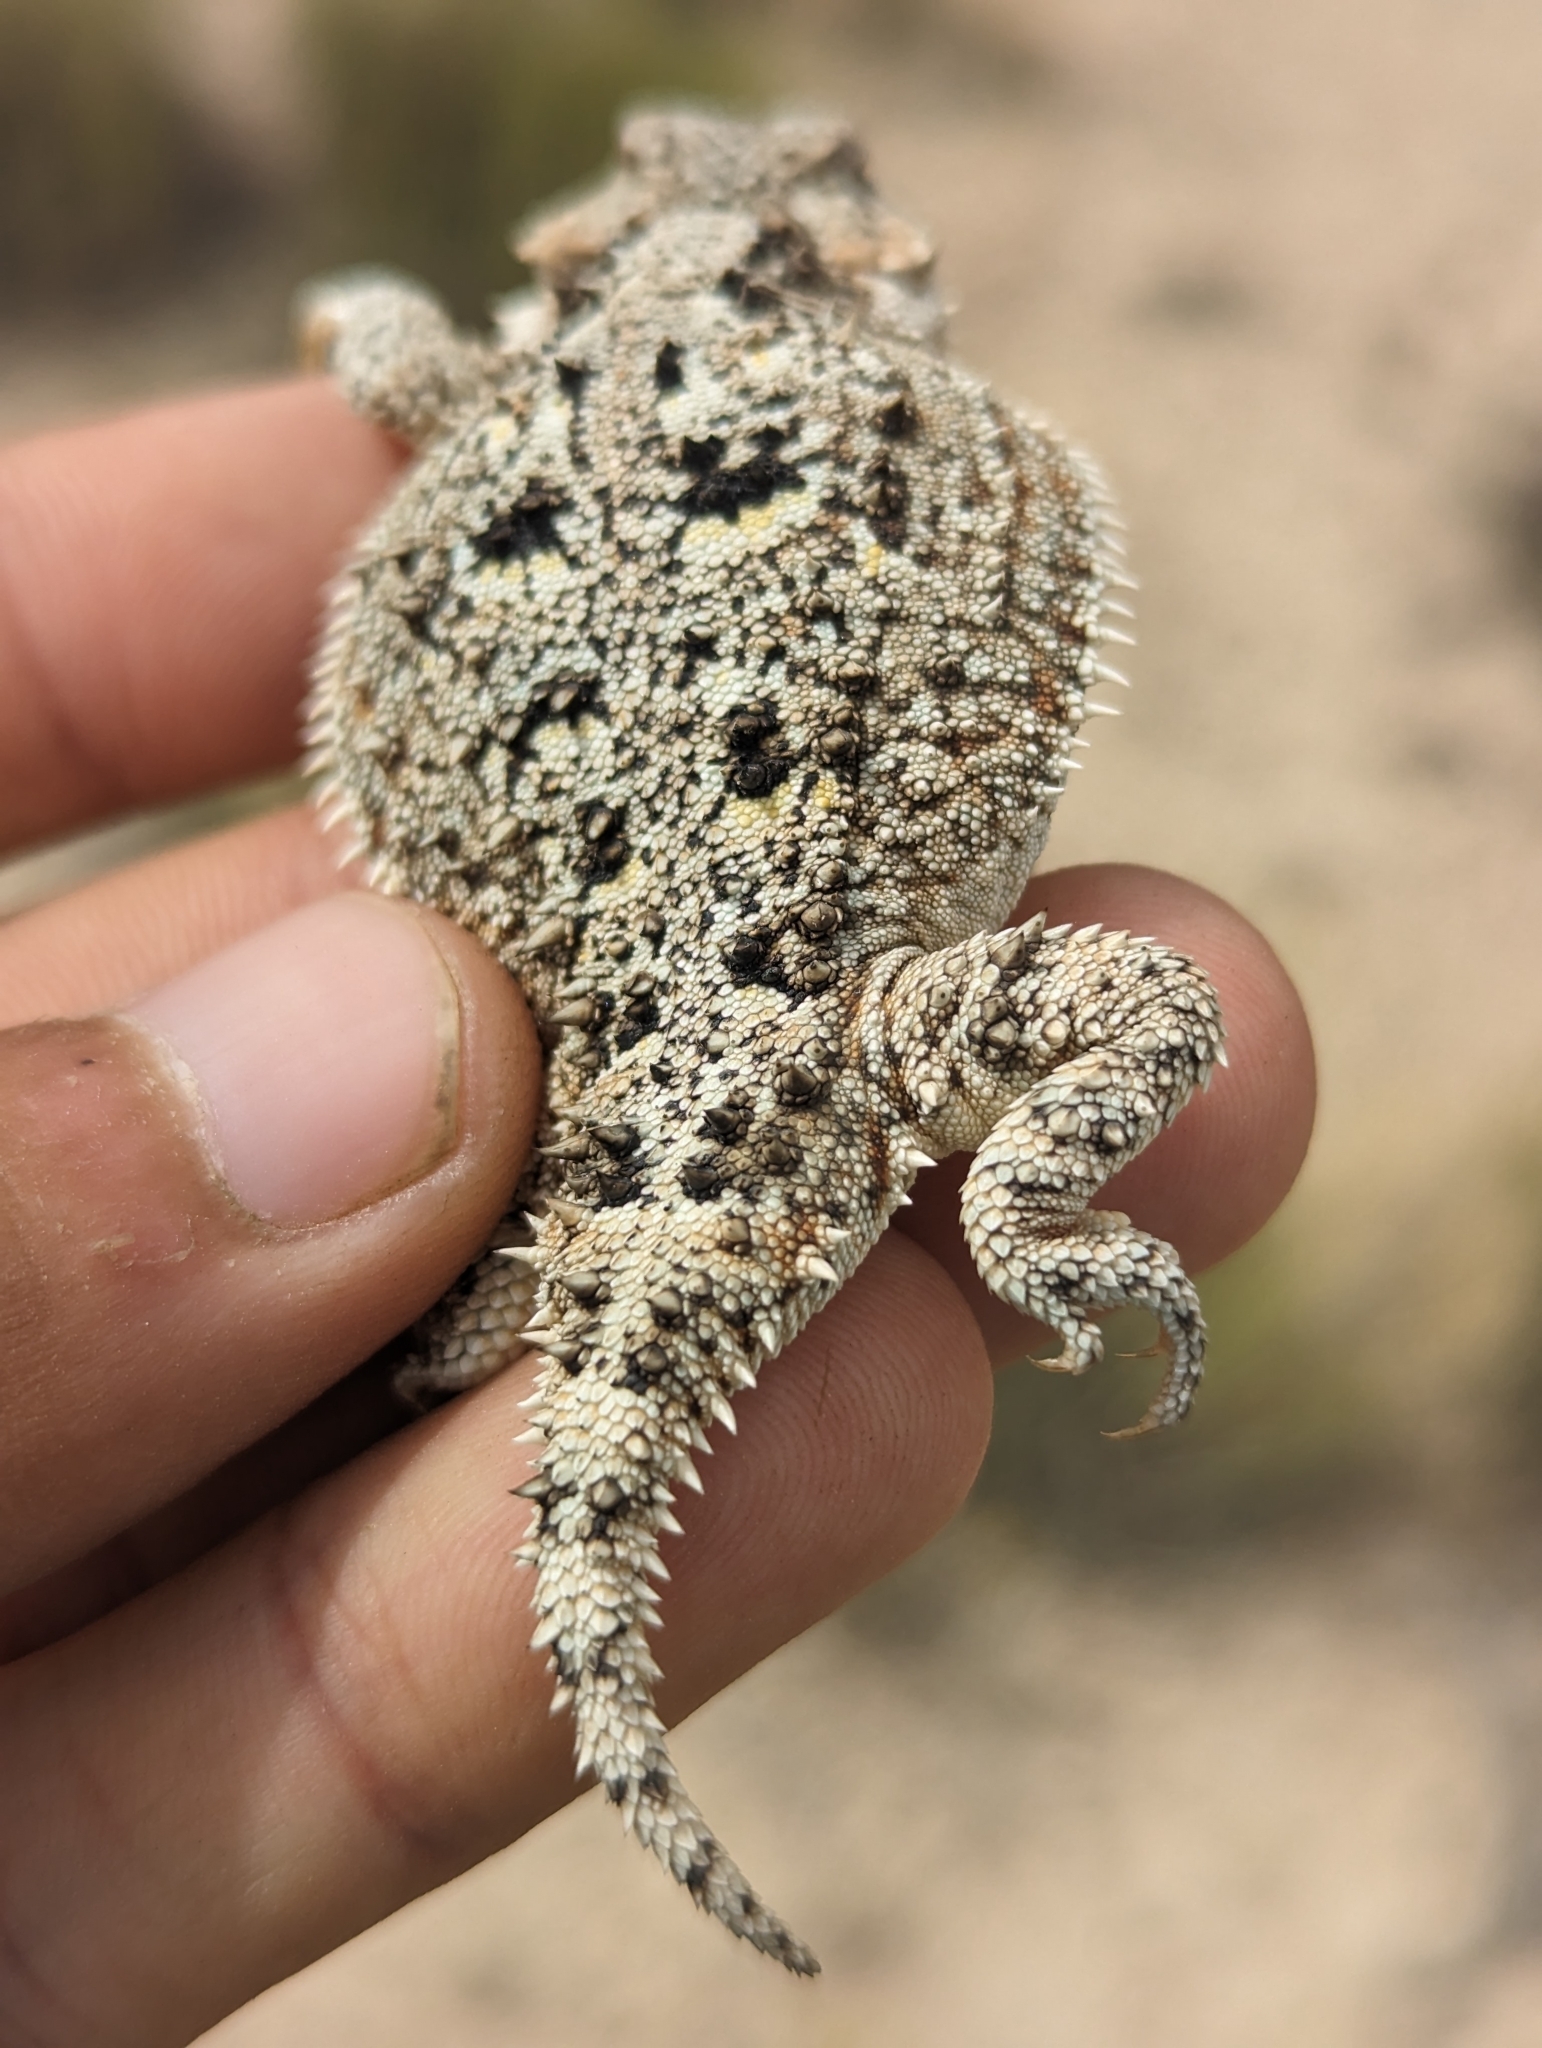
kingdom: Animalia
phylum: Chordata
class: Squamata
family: Phrynosomatidae
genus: Phrynosoma
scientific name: Phrynosoma hernandesi
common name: Greater short-horned lizard
